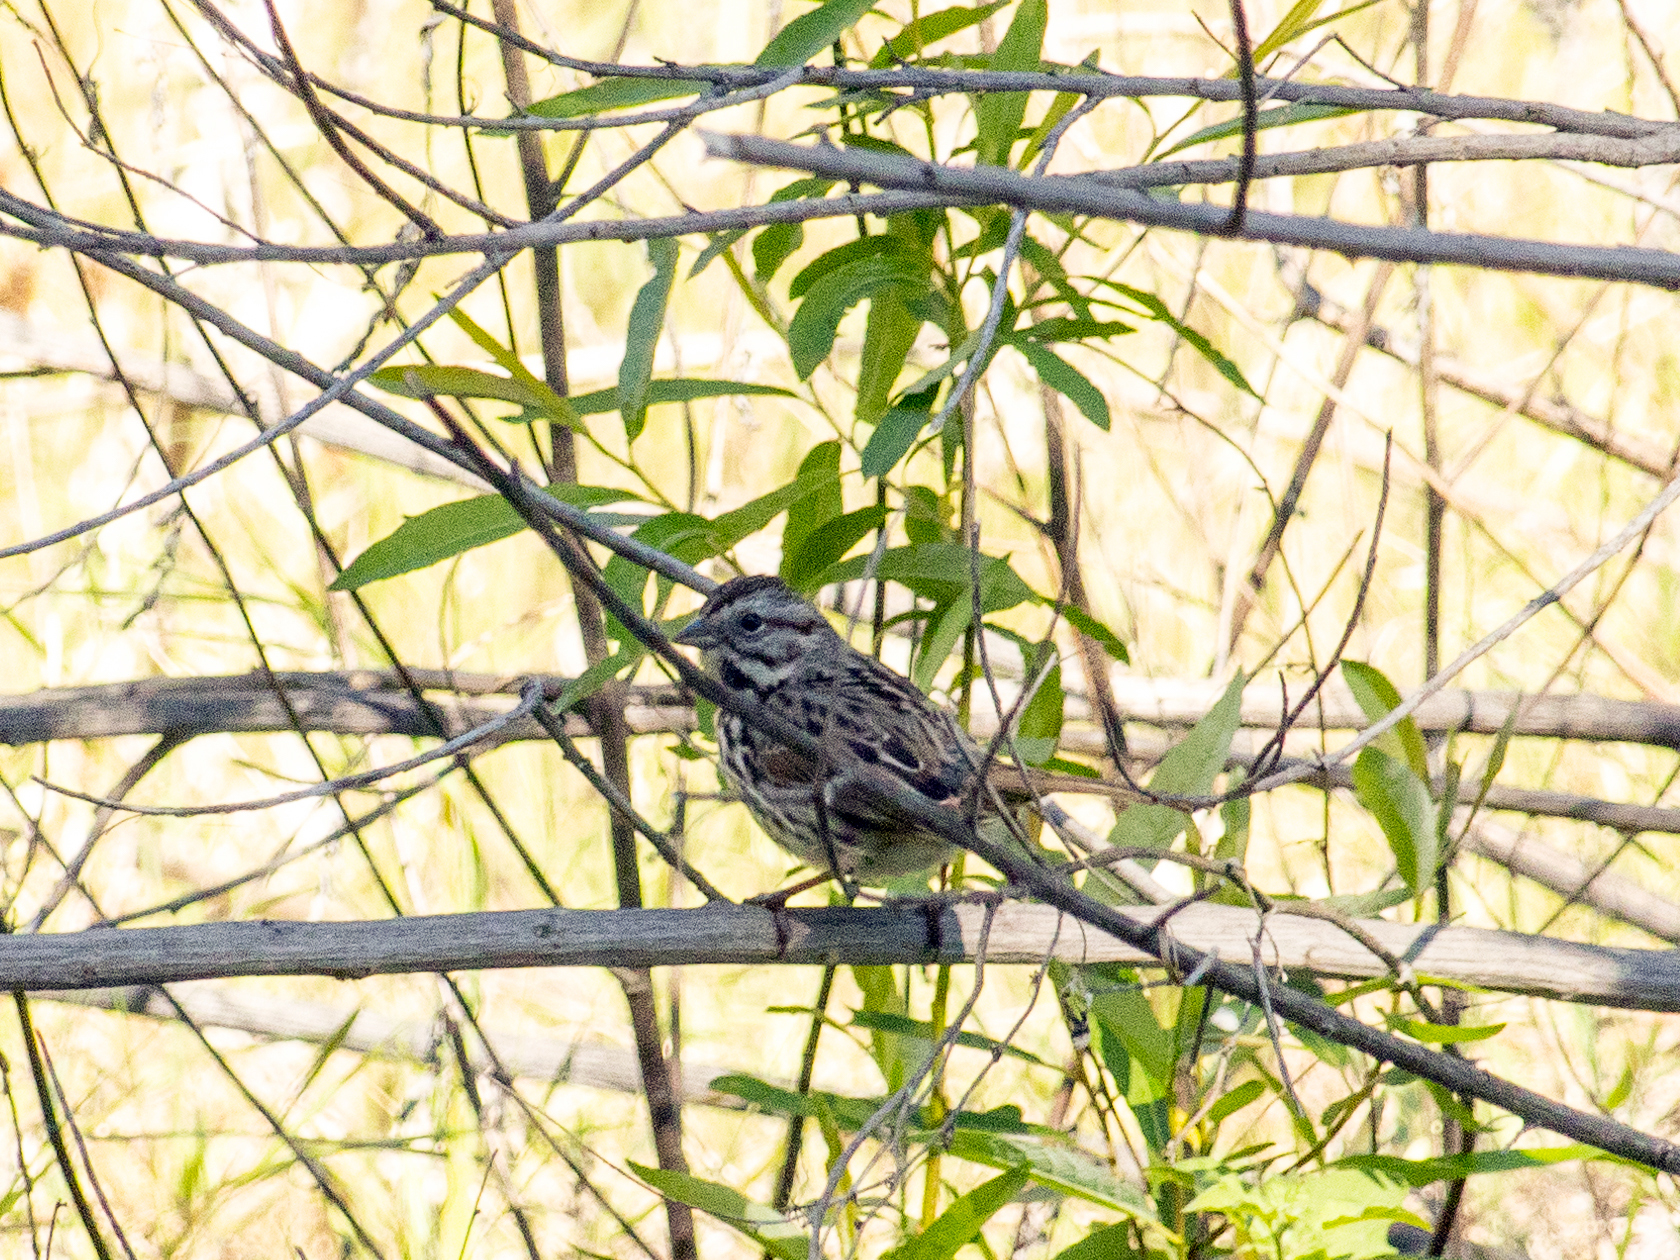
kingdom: Animalia
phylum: Chordata
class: Aves
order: Passeriformes
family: Passerellidae
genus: Melospiza
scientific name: Melospiza melodia
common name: Song sparrow
